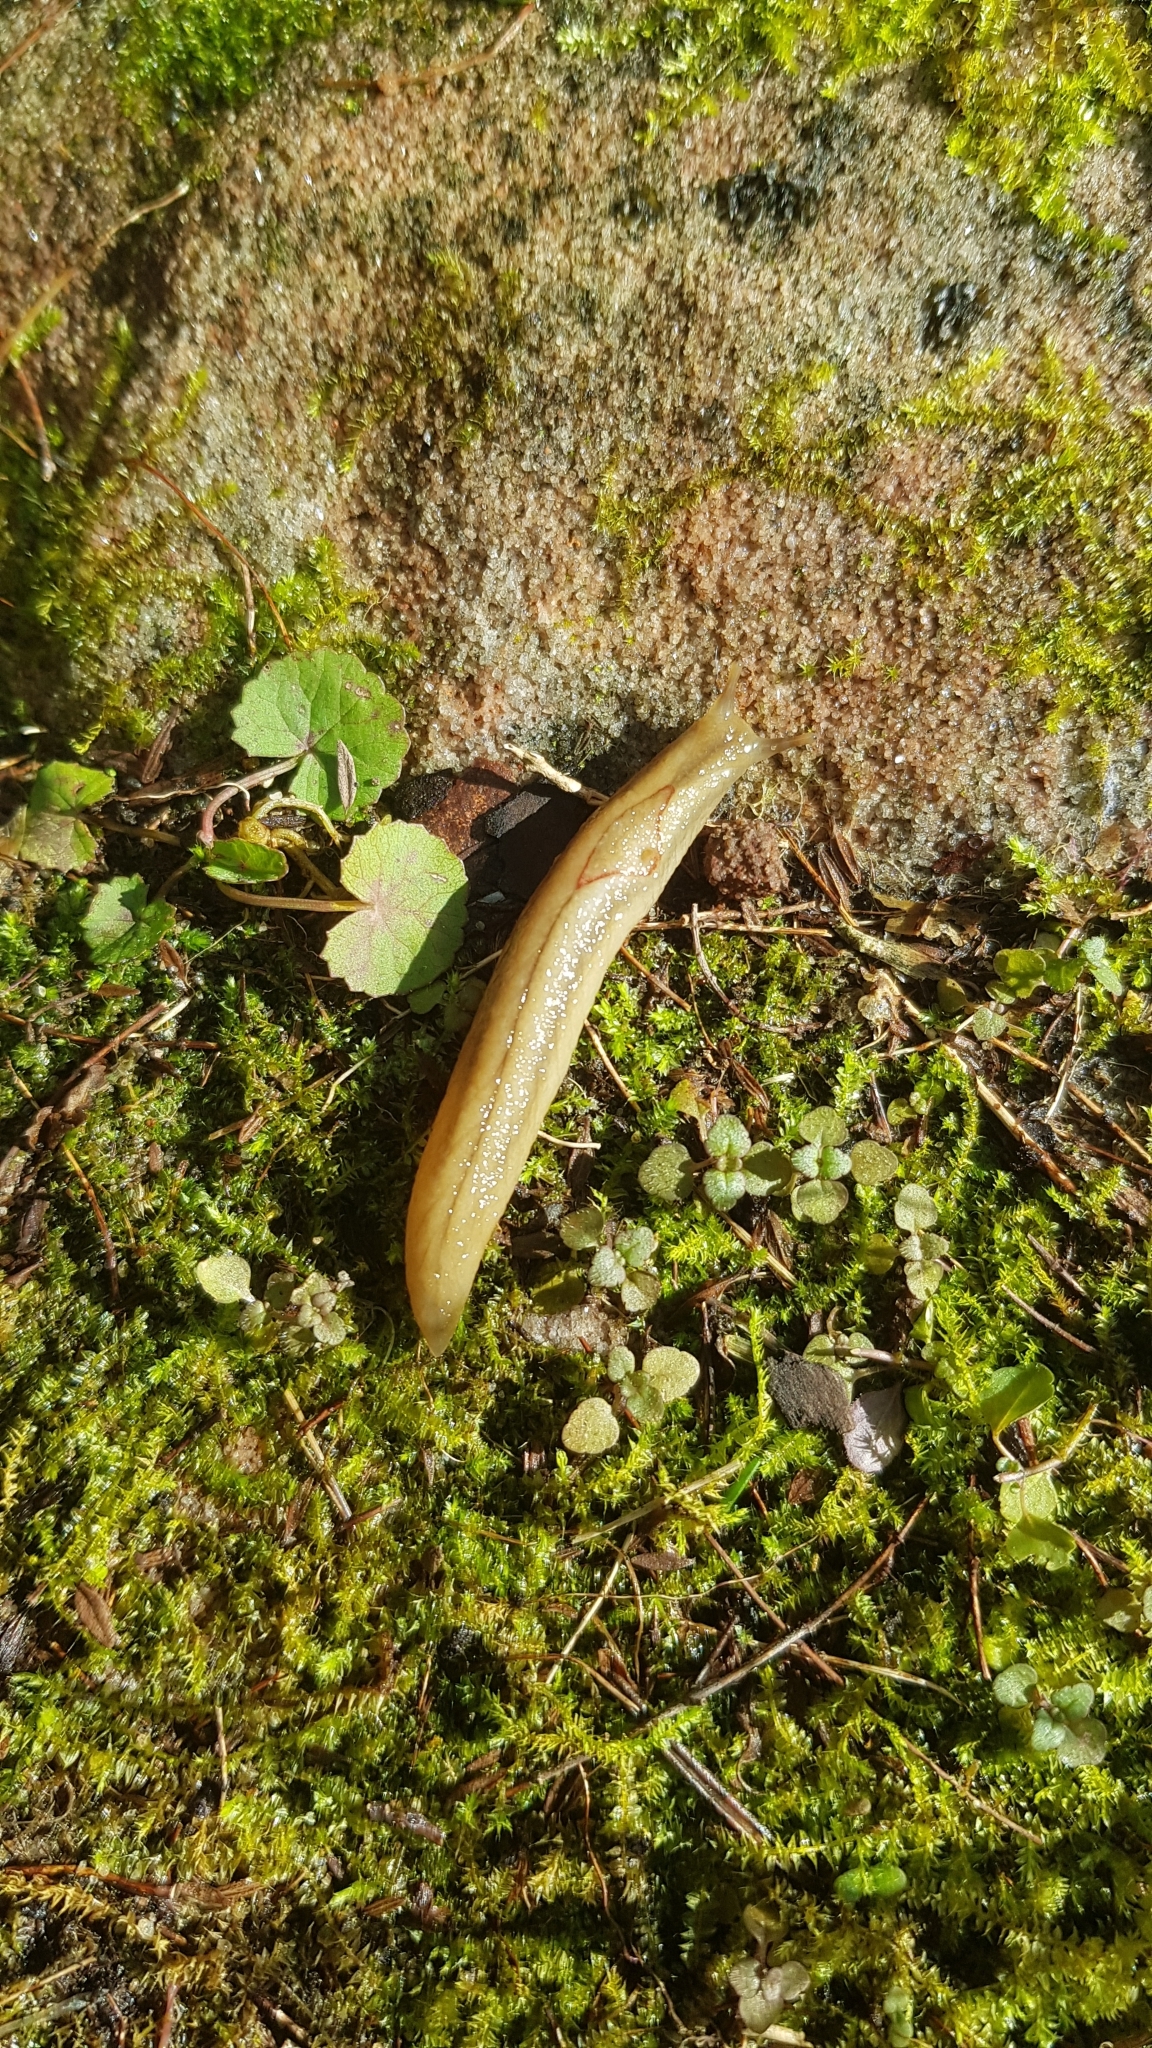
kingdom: Animalia
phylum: Mollusca
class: Gastropoda
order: Stylommatophora
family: Athoracophoridae
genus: Triboniophorus
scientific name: Triboniophorus graeffei
